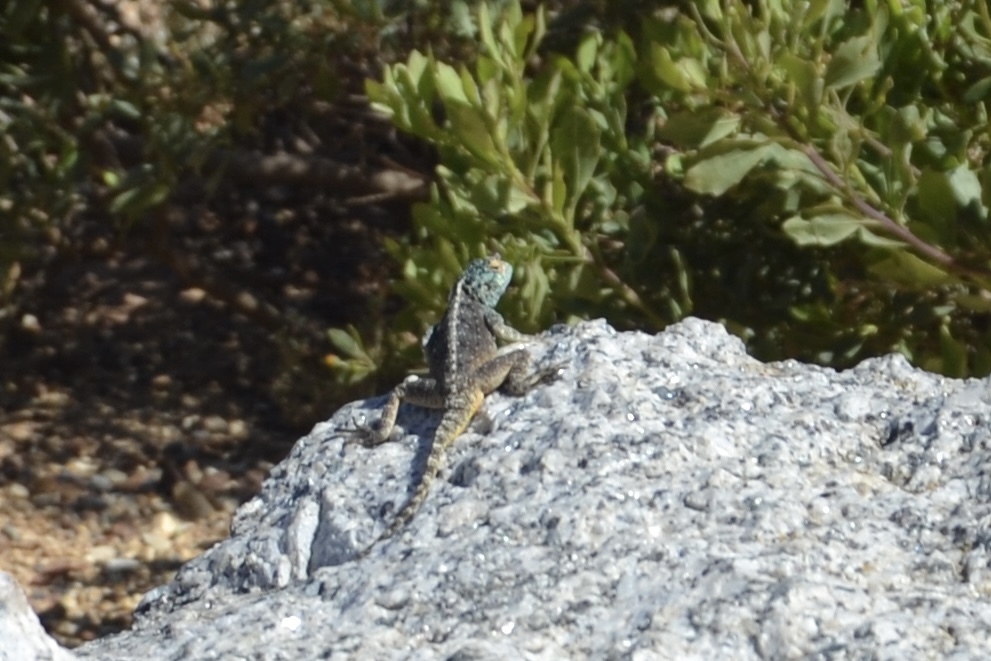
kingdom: Animalia
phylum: Chordata
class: Squamata
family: Agamidae
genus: Agama
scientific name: Agama atra
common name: Southern african rock agama
